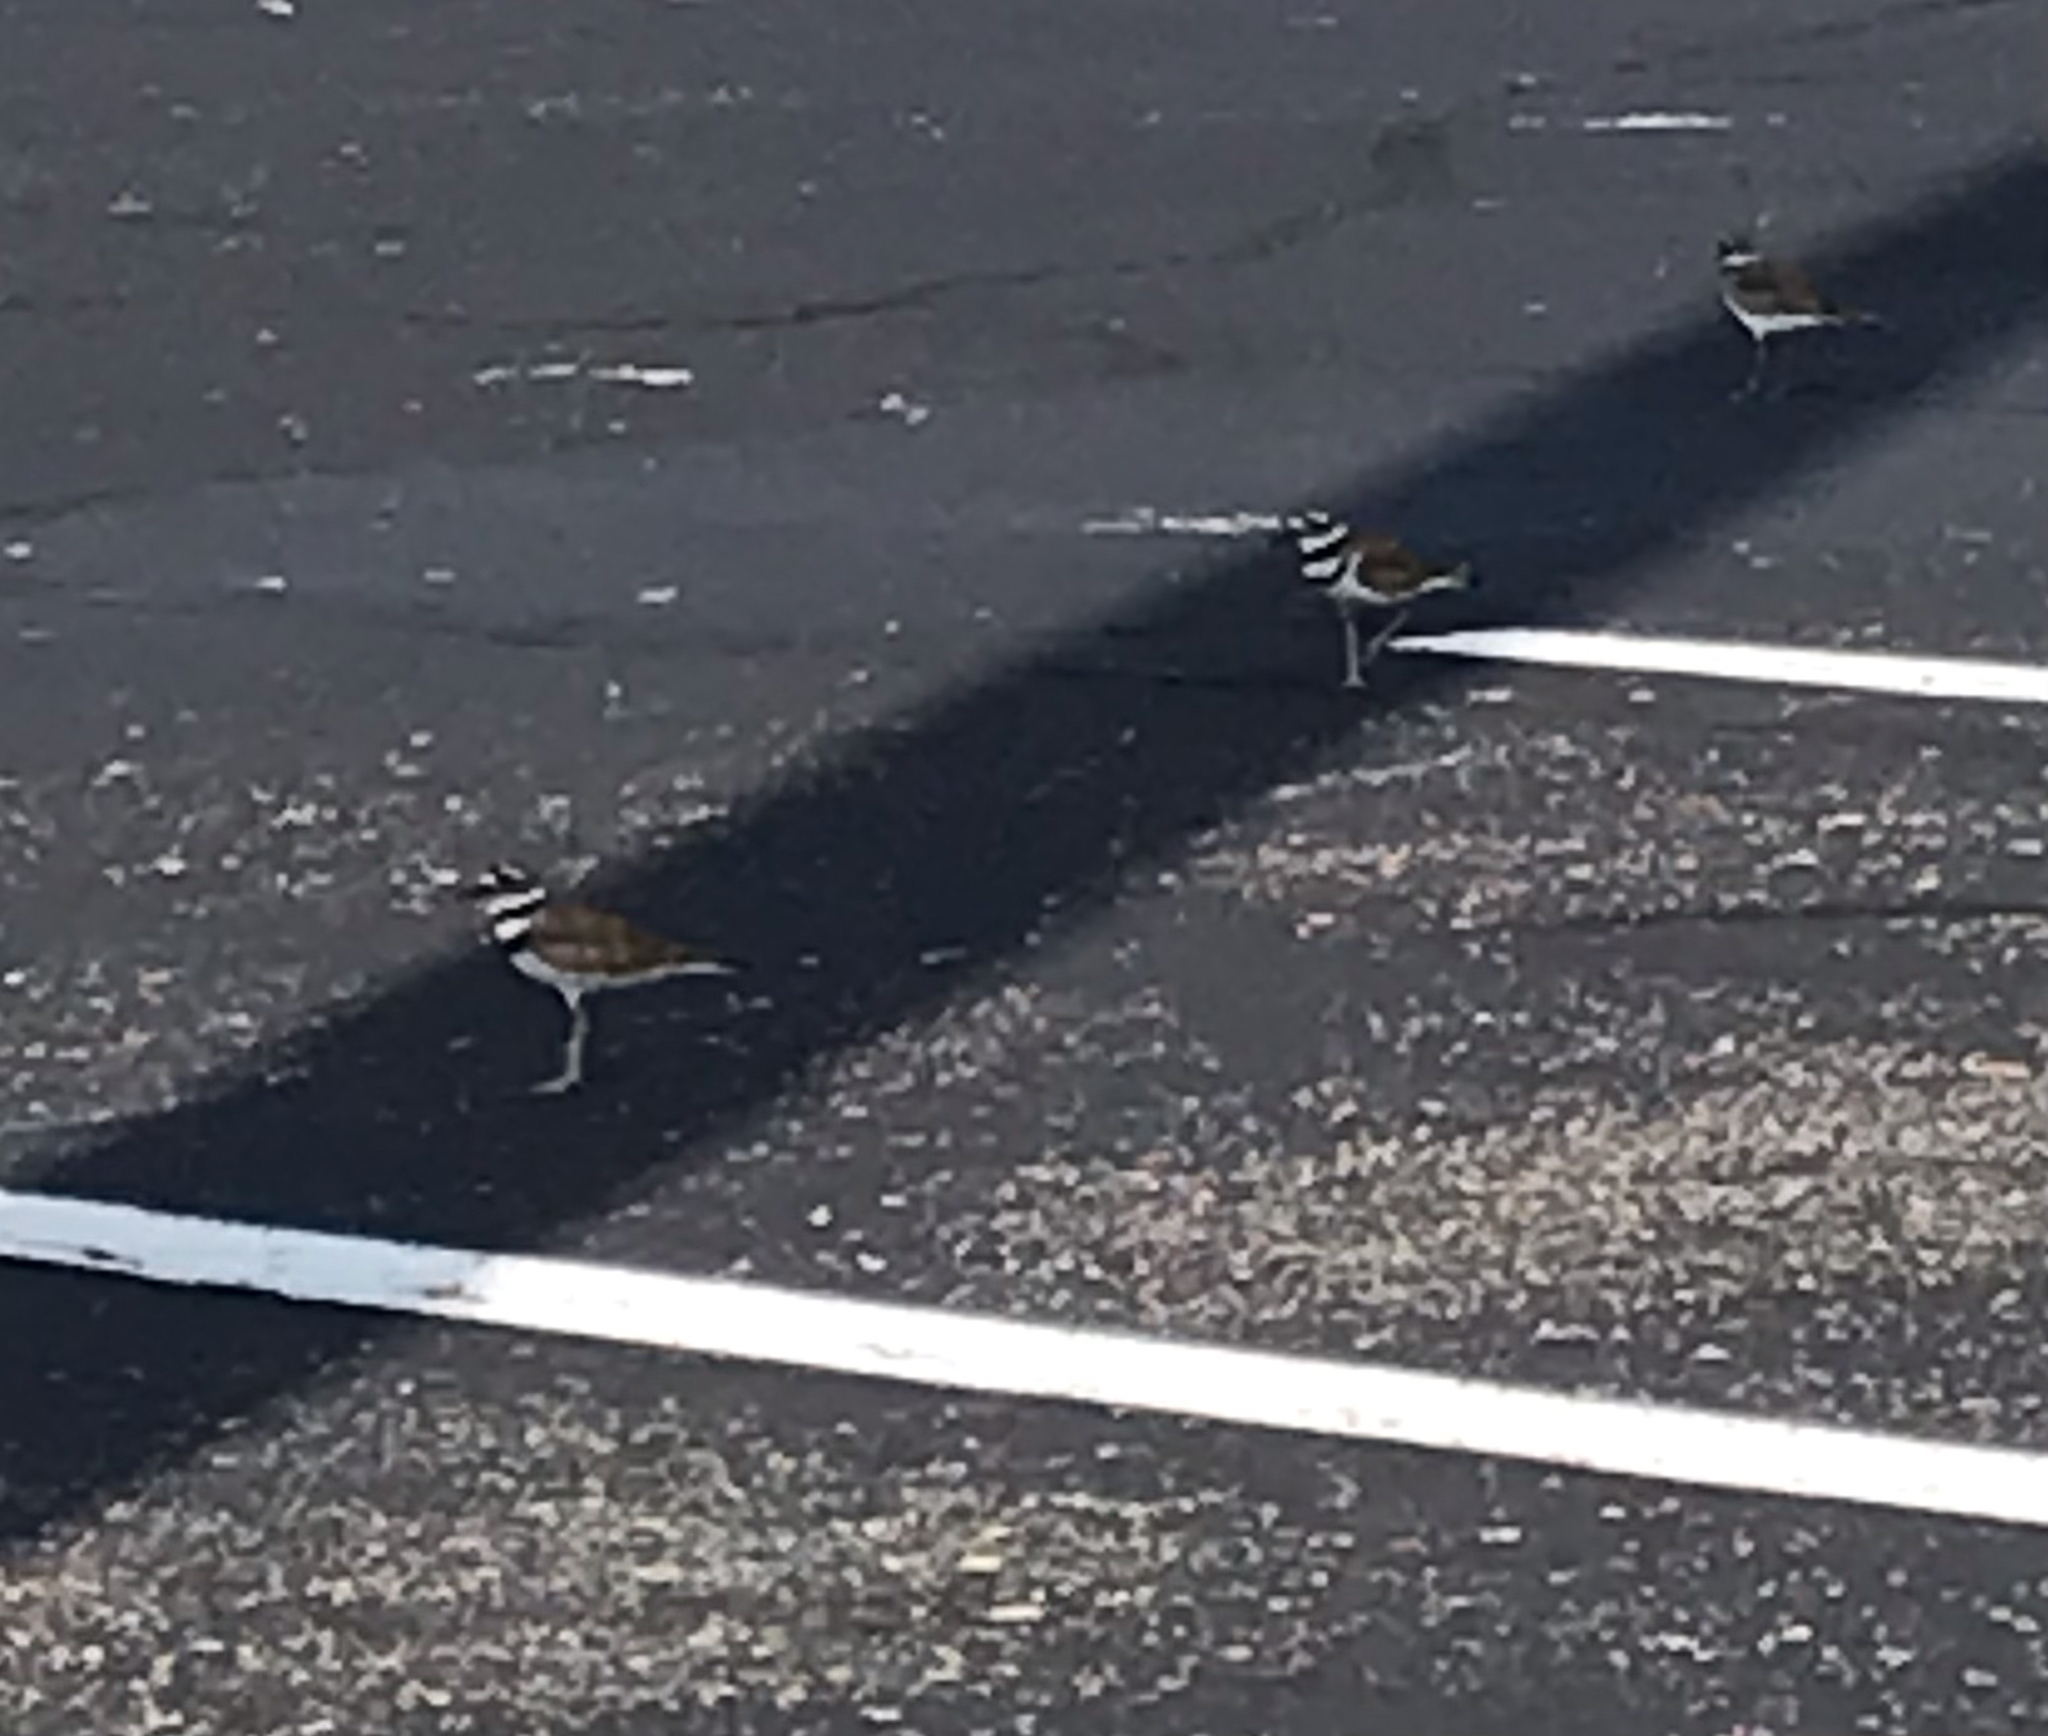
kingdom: Animalia
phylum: Chordata
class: Aves
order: Charadriiformes
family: Charadriidae
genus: Charadrius
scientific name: Charadrius vociferus
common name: Killdeer
